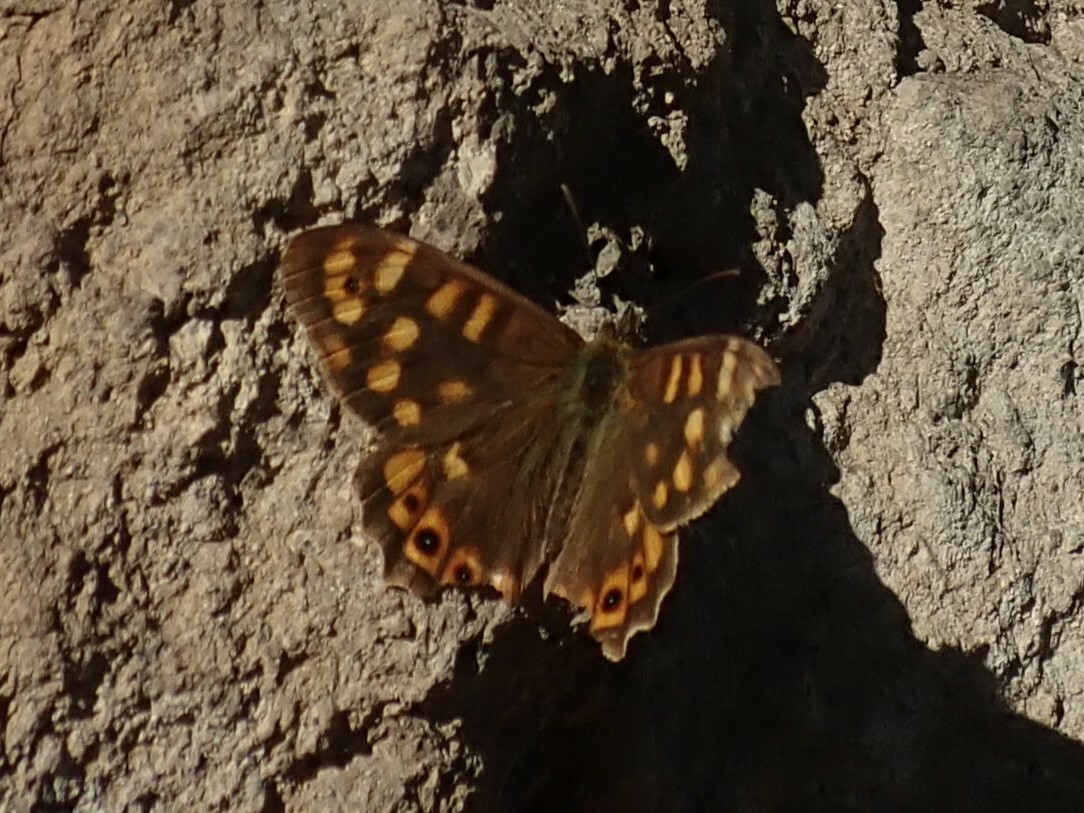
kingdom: Animalia
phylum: Arthropoda
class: Insecta
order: Lepidoptera
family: Nymphalidae
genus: Pararge
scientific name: Pararge aegeria
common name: Speckled wood
